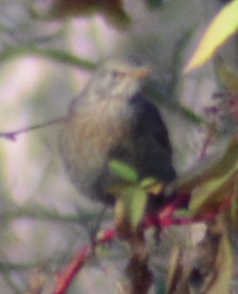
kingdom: Animalia
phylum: Chordata
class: Aves
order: Passeriformes
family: Turdidae
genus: Turdus
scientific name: Turdus merula
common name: Common blackbird
